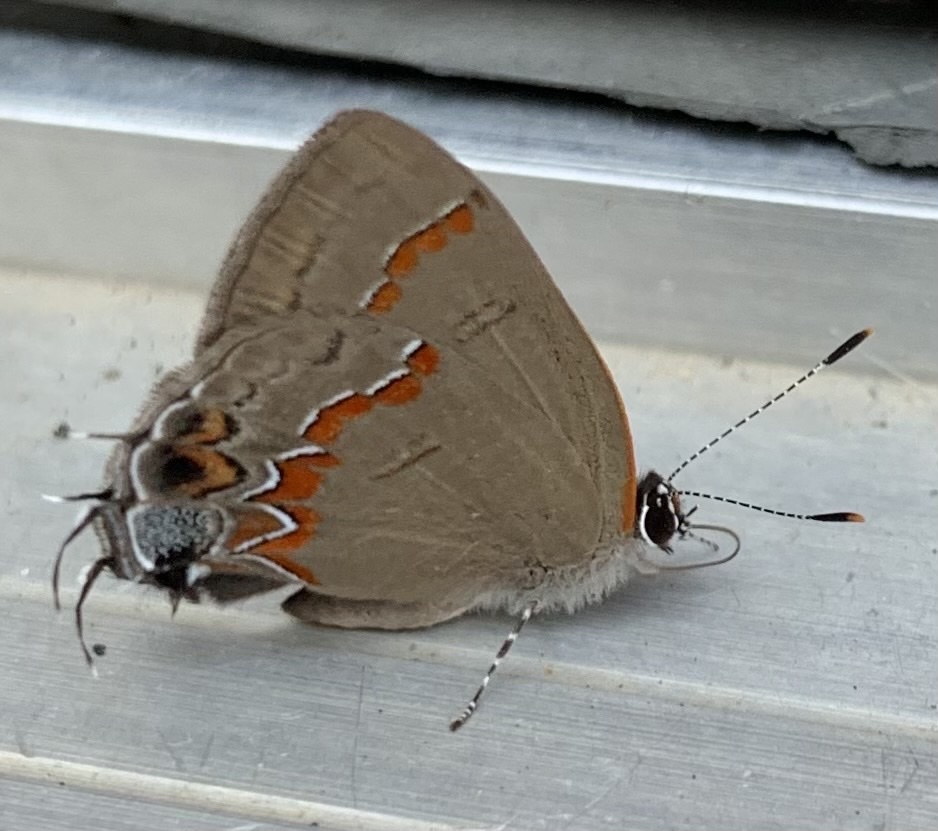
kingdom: Animalia
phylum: Arthropoda
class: Insecta
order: Lepidoptera
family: Lycaenidae
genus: Calycopis
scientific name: Calycopis cecrops
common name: Red-banded hairstreak
